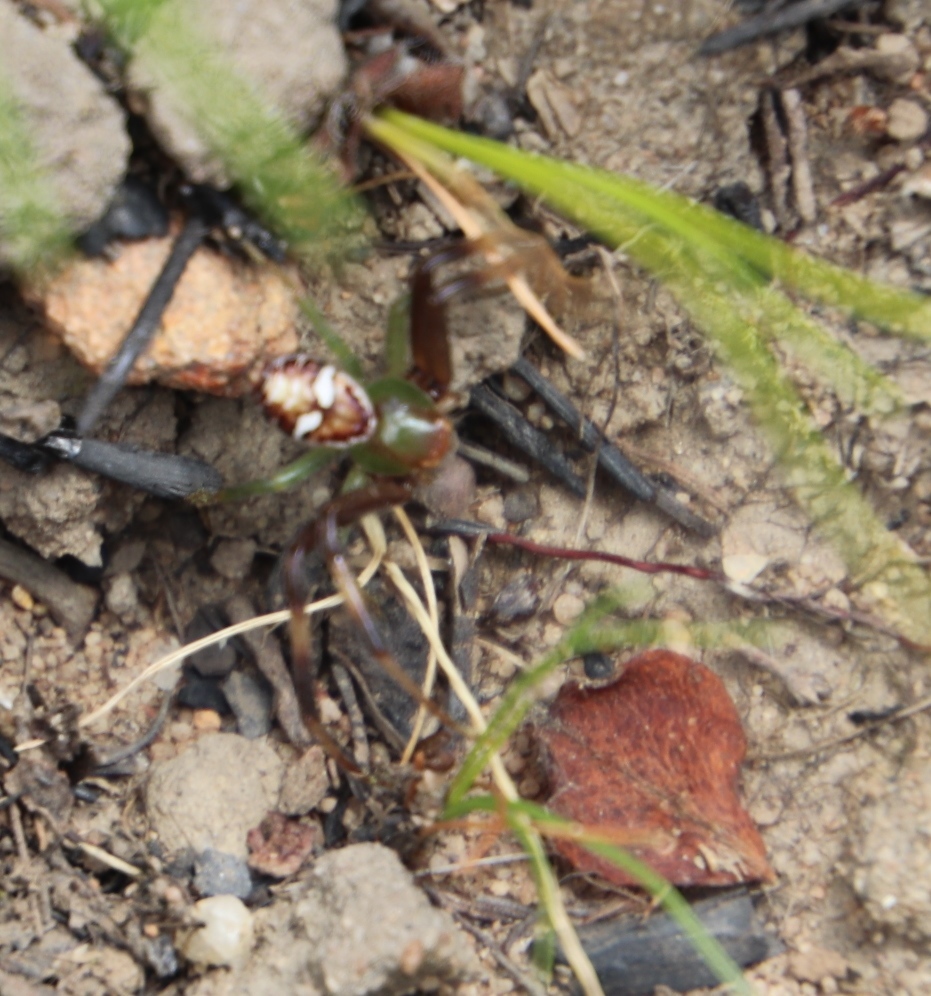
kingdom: Animalia
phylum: Arthropoda
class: Arachnida
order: Araneae
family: Thomisidae
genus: Synema
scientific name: Synema imitatrix
